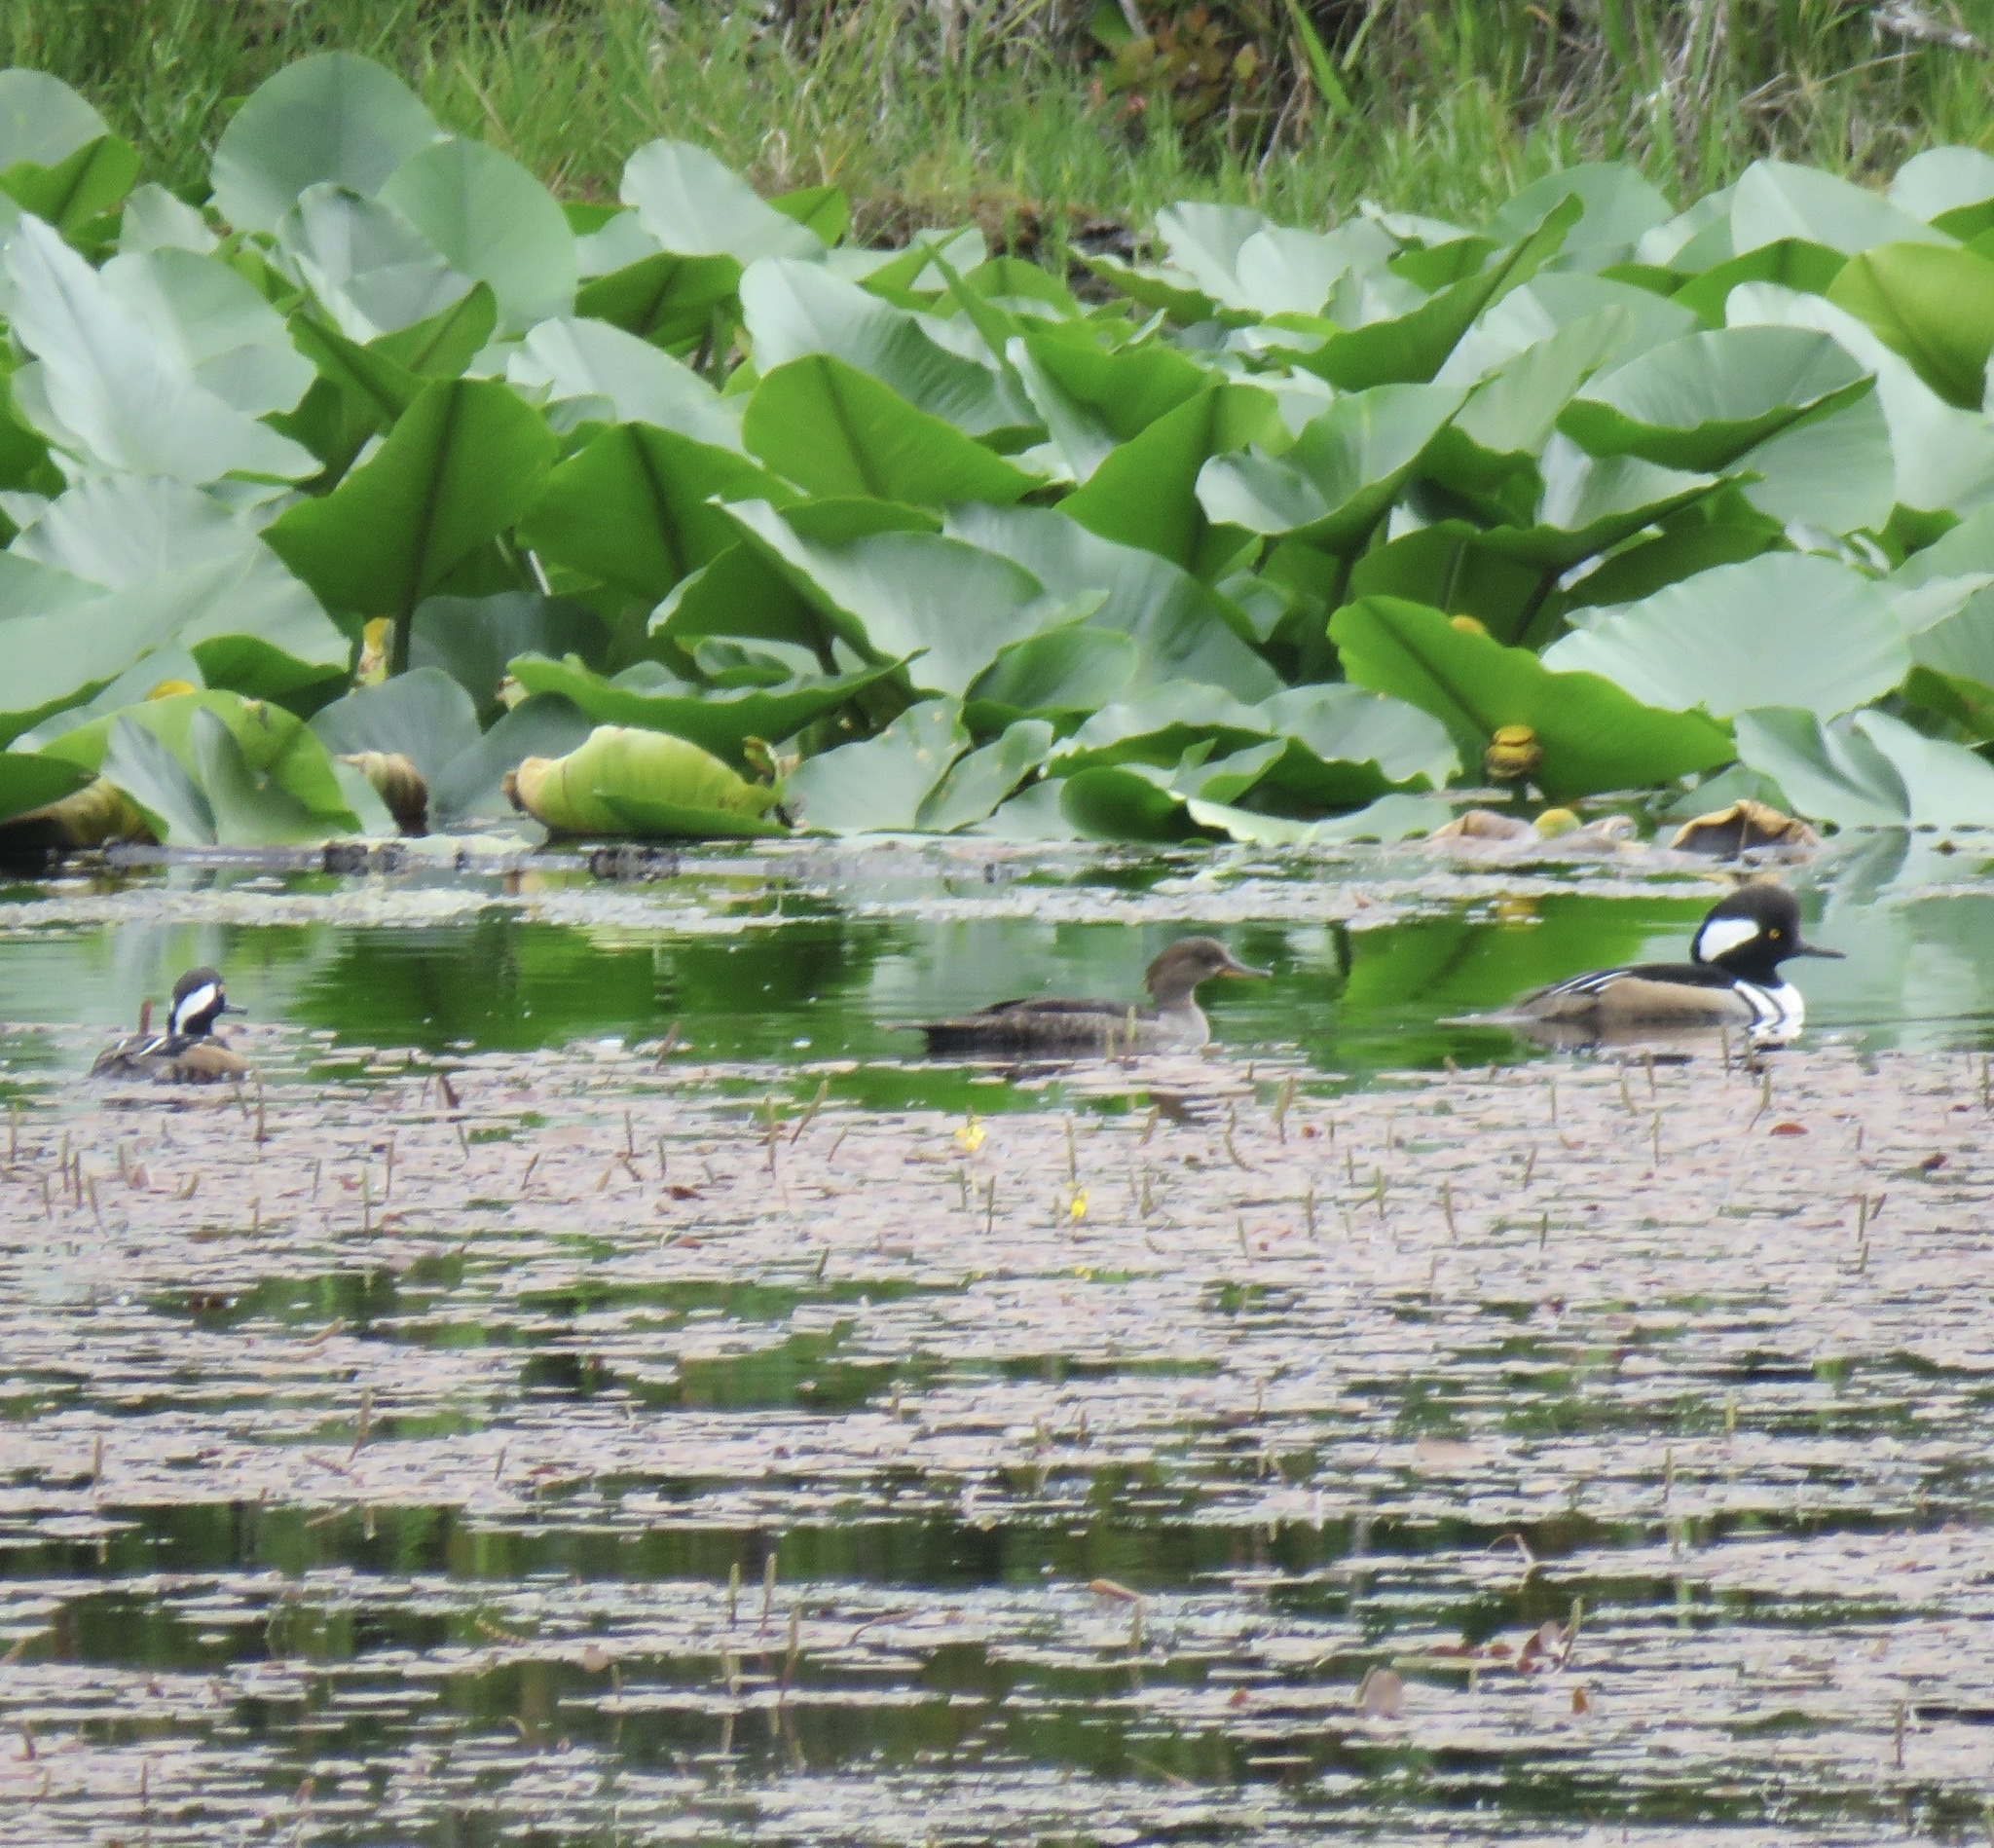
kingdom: Animalia
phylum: Chordata
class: Aves
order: Anseriformes
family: Anatidae
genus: Lophodytes
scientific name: Lophodytes cucullatus
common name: Hooded merganser
